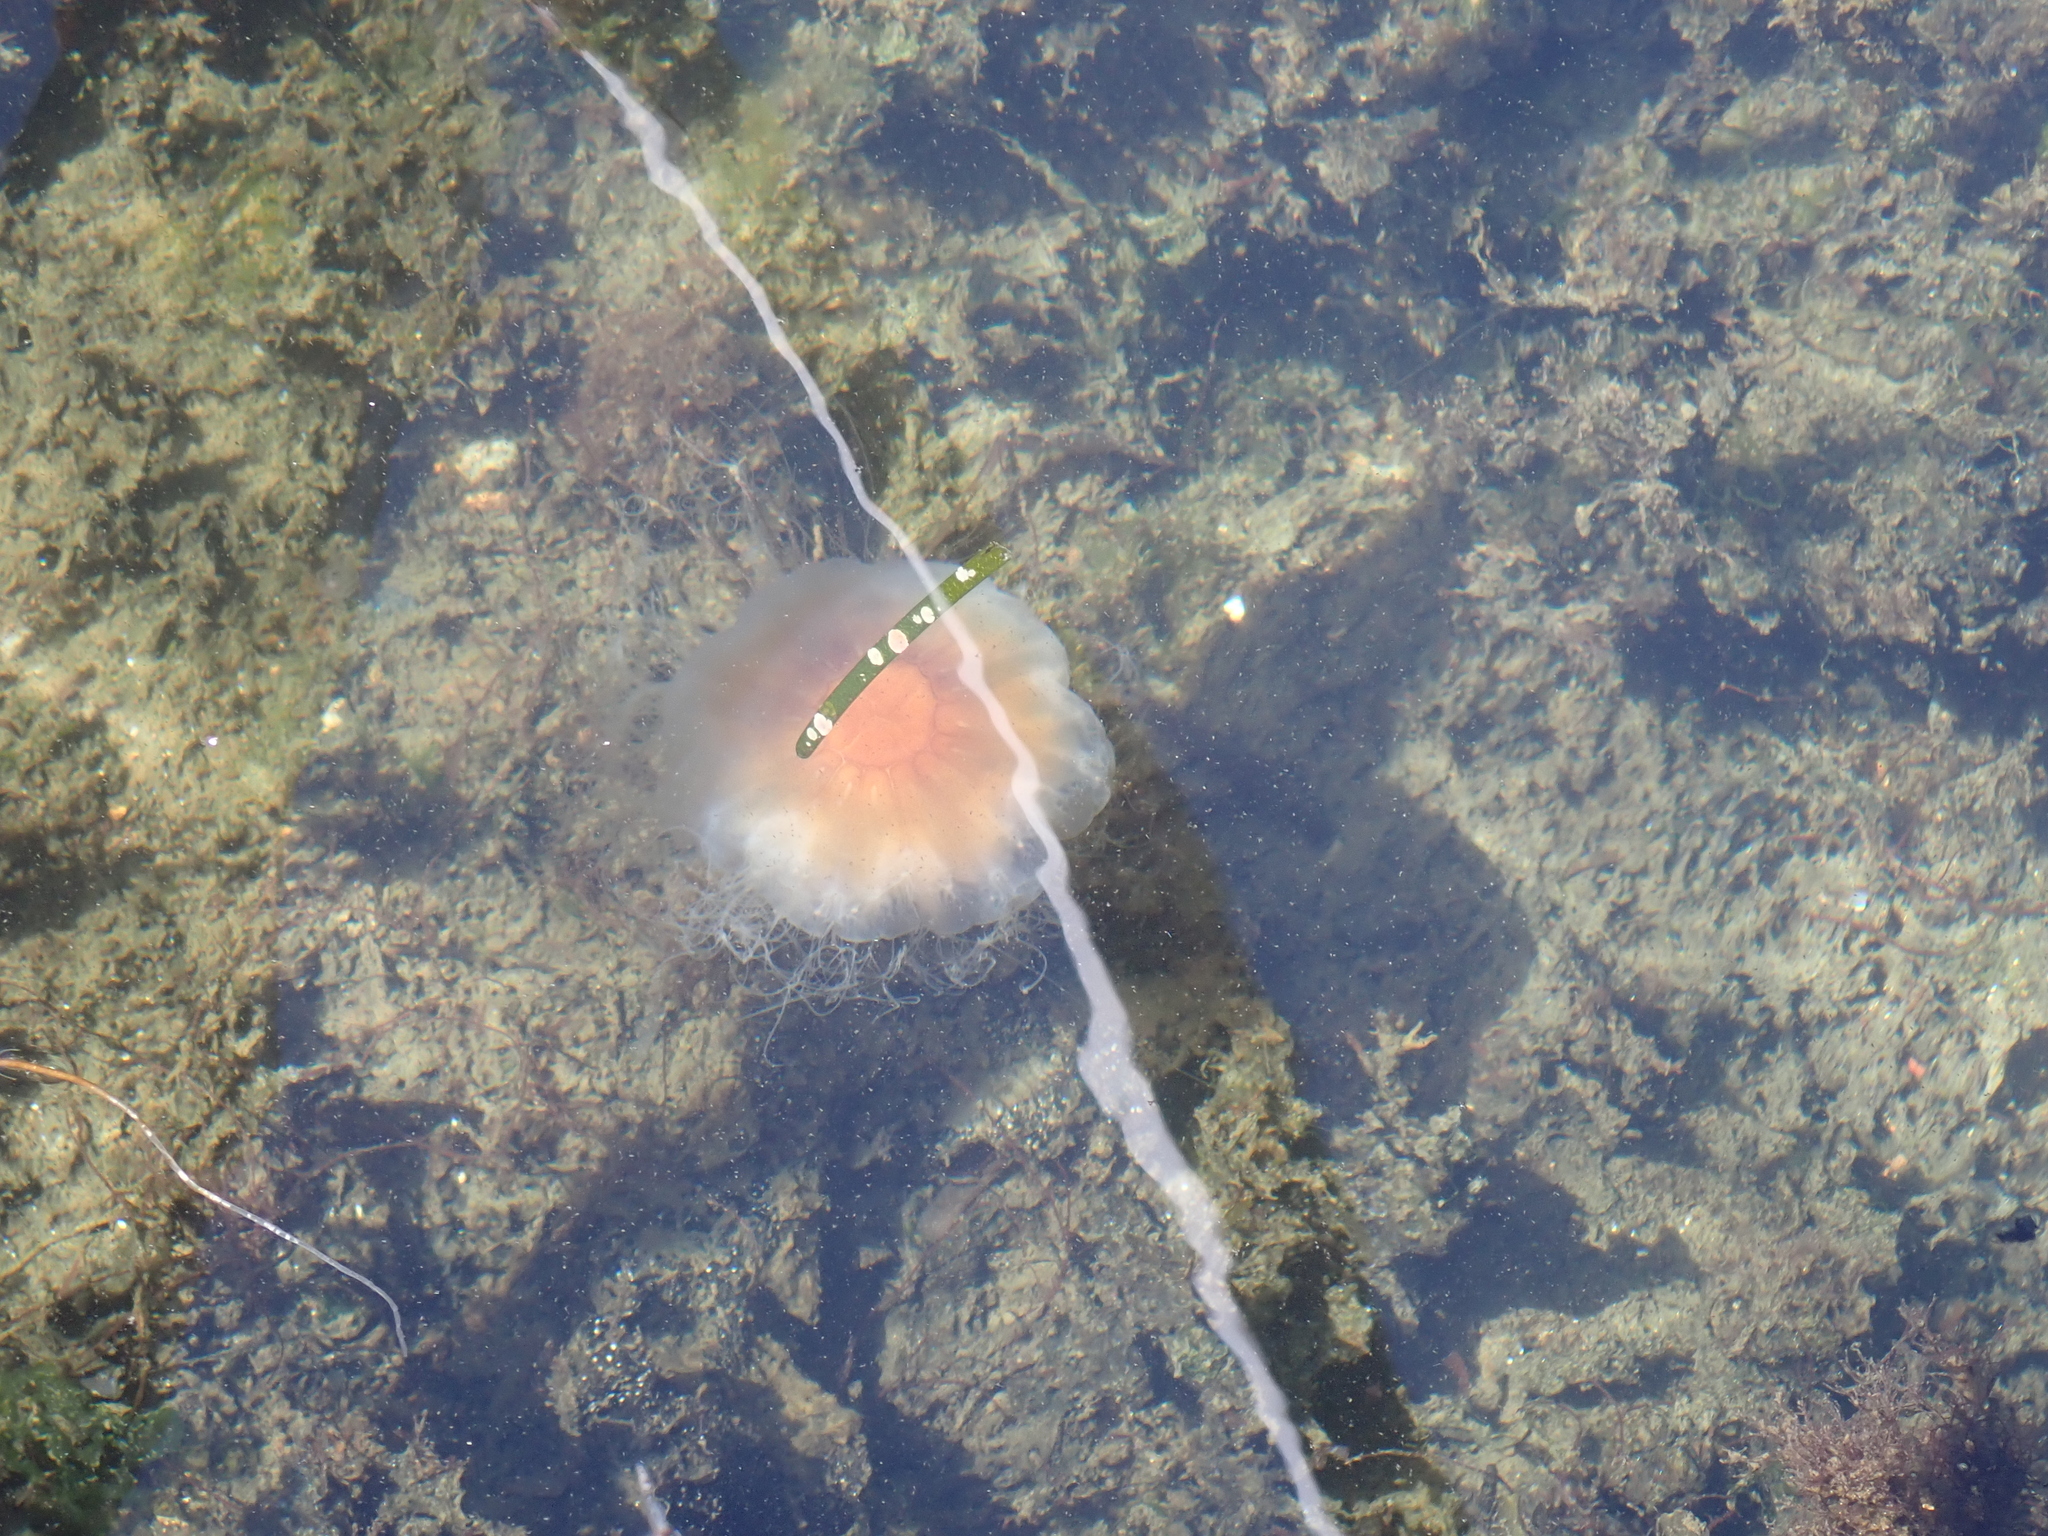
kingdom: Animalia
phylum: Cnidaria
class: Scyphozoa
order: Semaeostomeae
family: Cyaneidae
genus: Cyanea
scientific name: Cyanea capillata
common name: Lion's mane jellyfish
